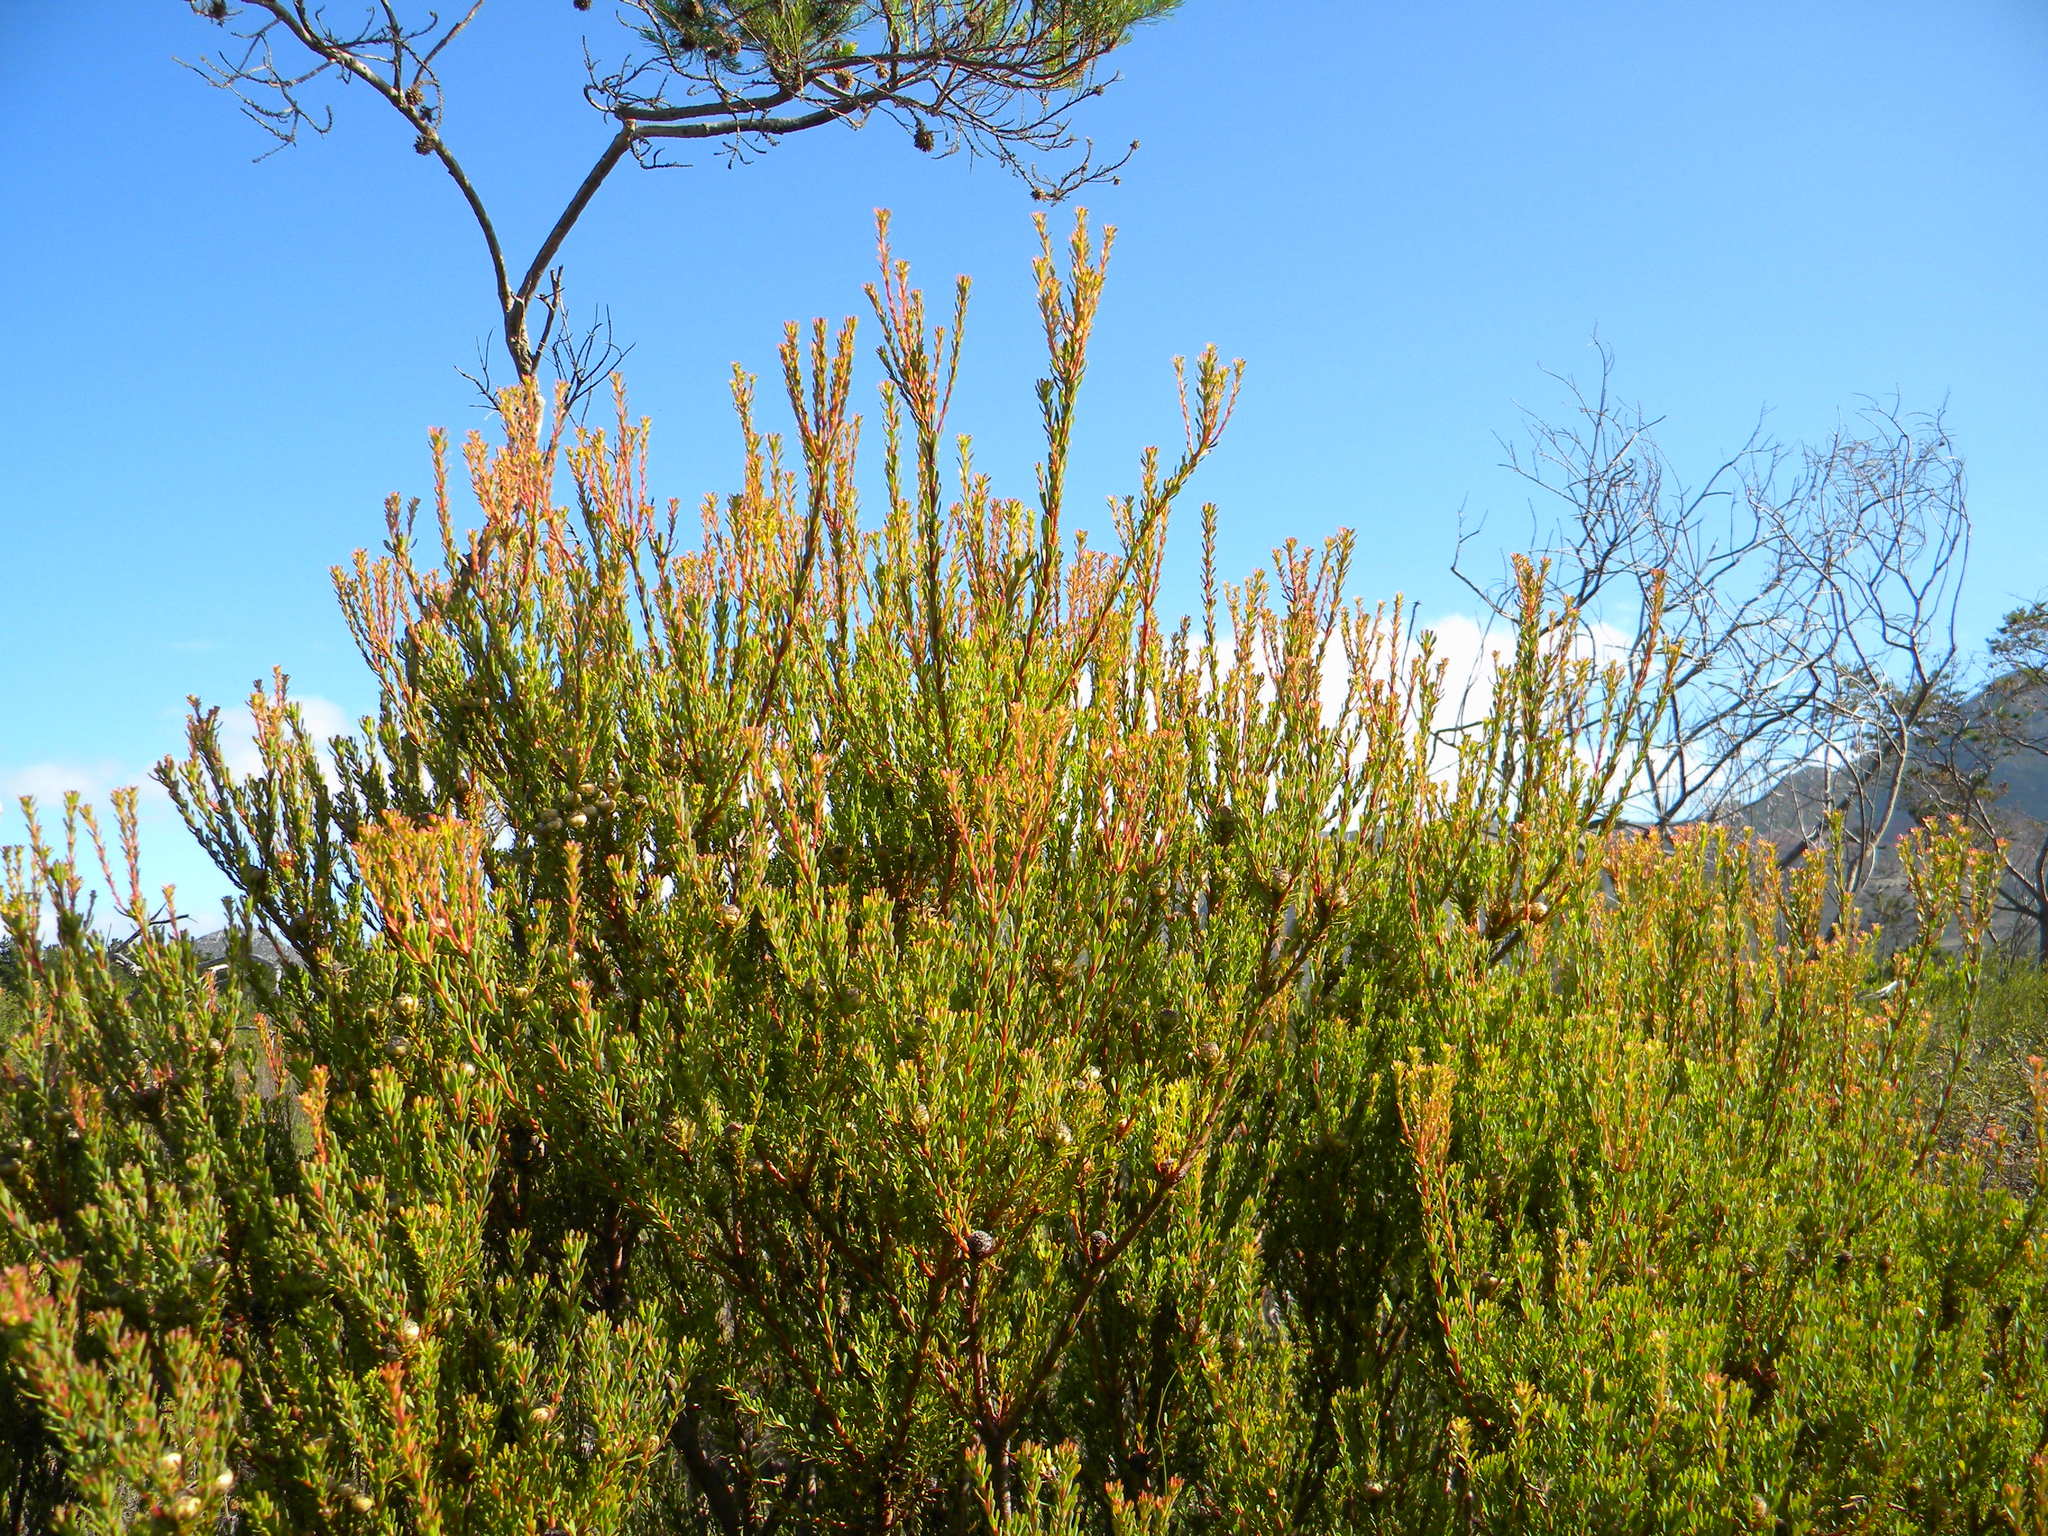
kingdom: Plantae
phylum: Tracheophyta
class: Magnoliopsida
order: Proteales
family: Proteaceae
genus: Leucadendron
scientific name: Leucadendron levisanus
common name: Cape flats conebush
